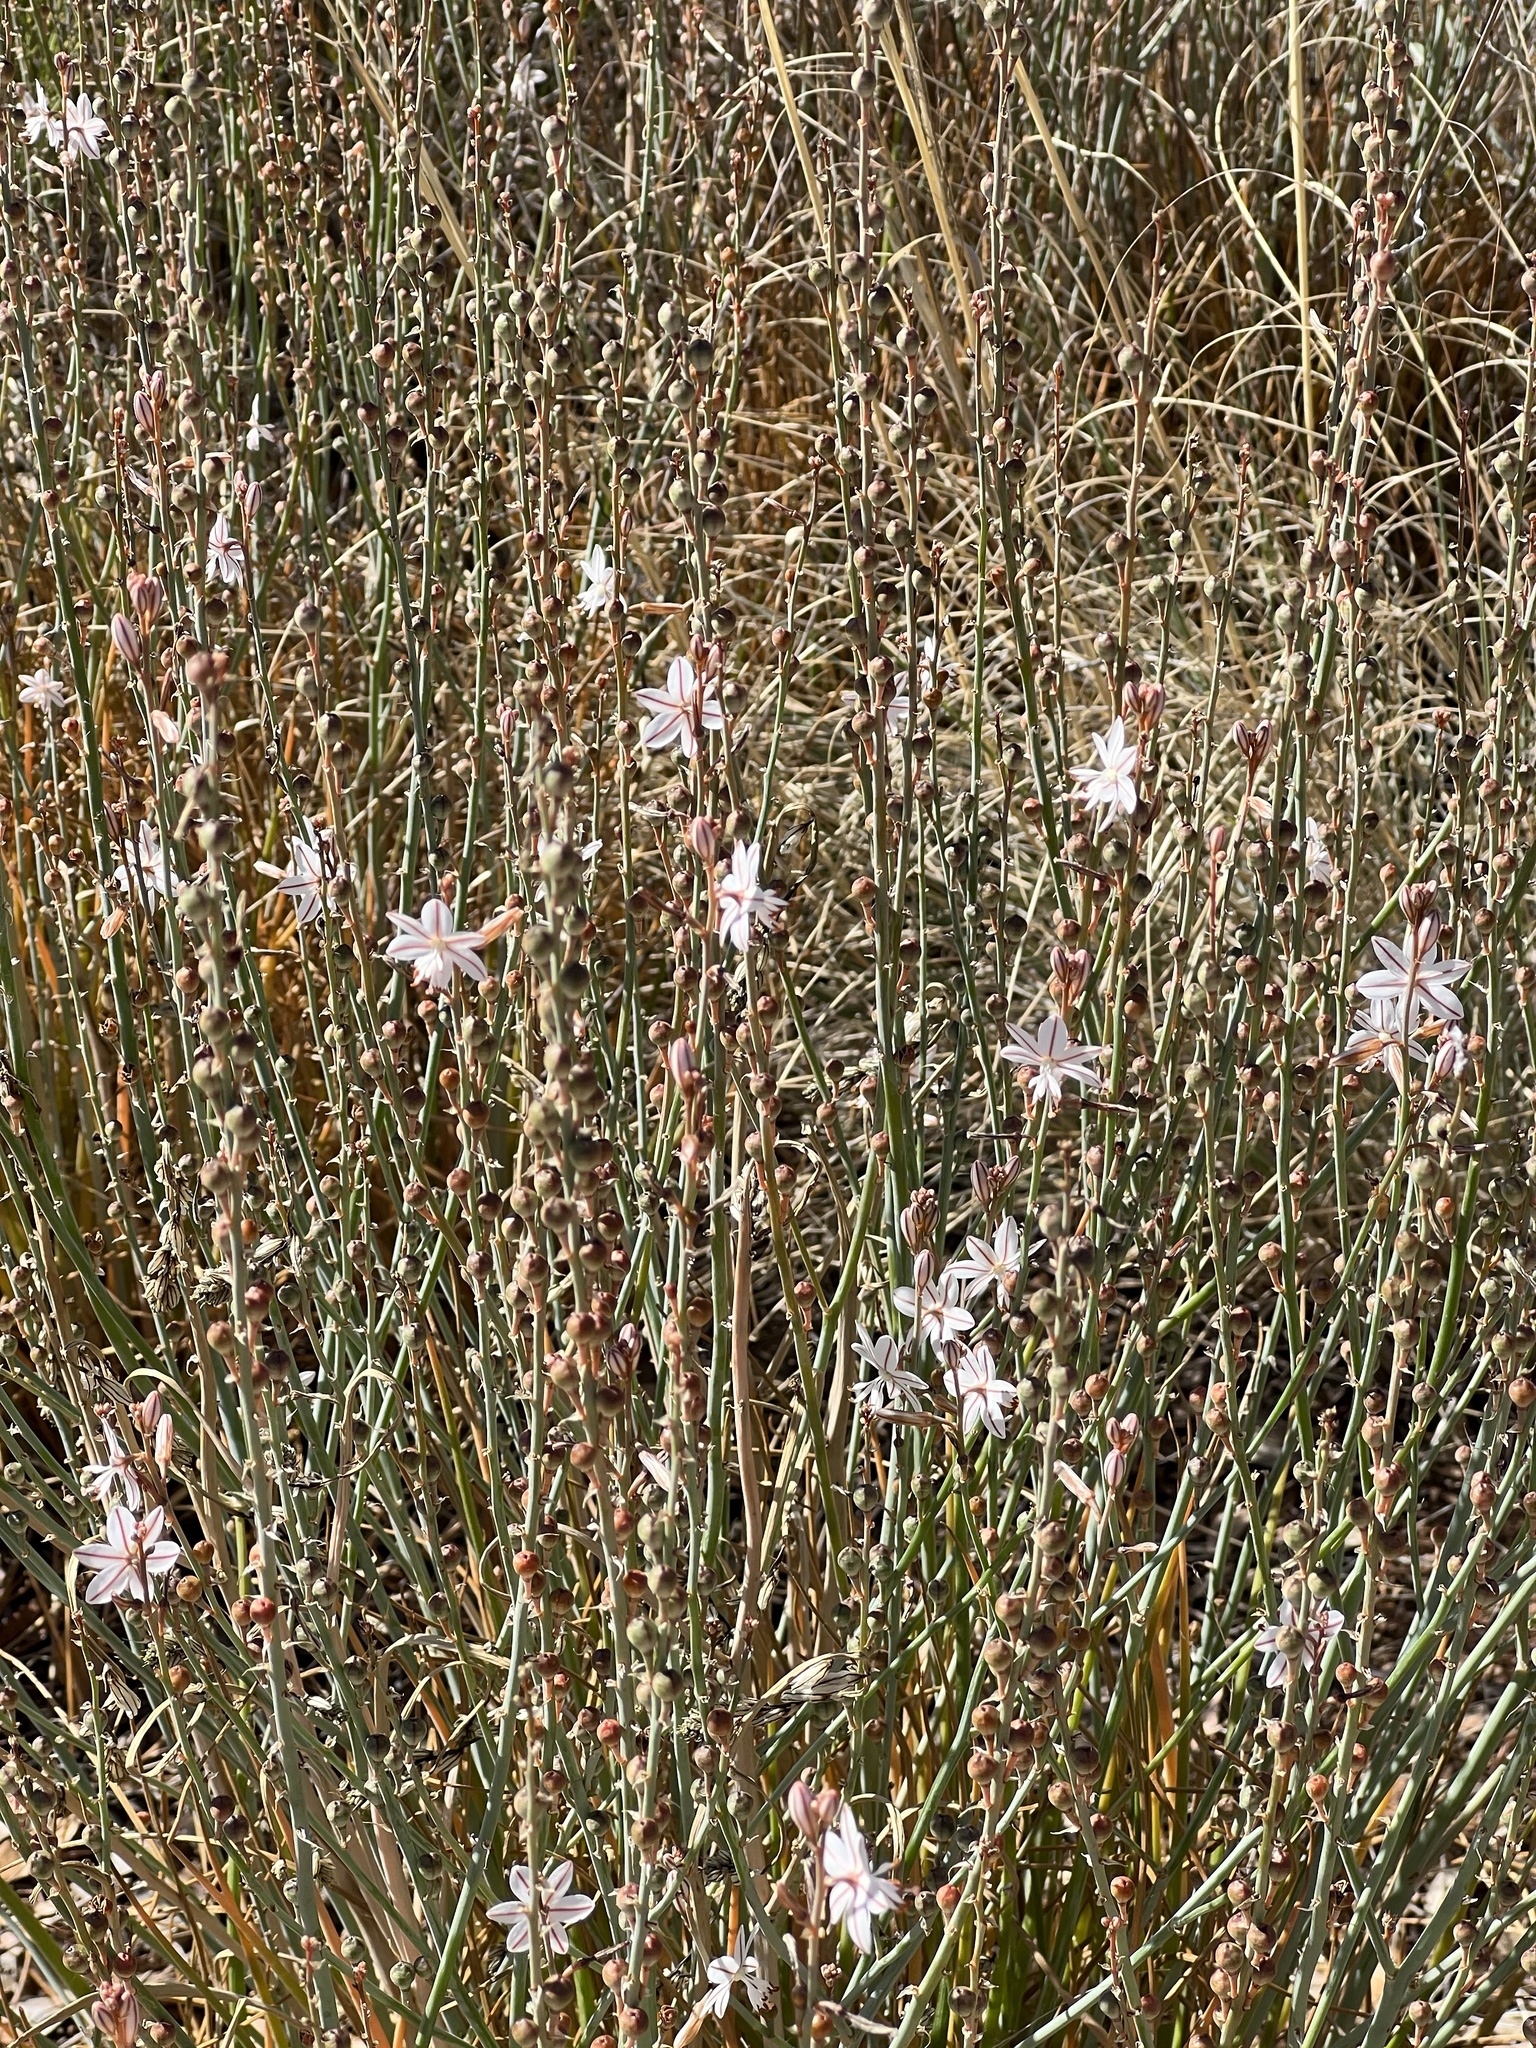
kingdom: Plantae
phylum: Tracheophyta
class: Liliopsida
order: Asparagales
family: Asphodelaceae
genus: Asphodelus
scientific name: Asphodelus fistulosus
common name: Onionweed
